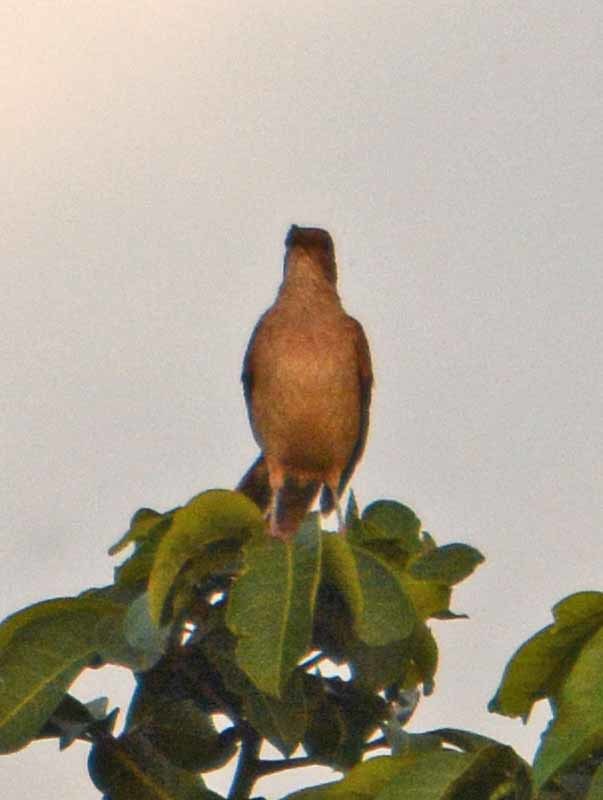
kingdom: Animalia
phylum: Chordata
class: Aves
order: Passeriformes
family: Turdidae
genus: Turdus
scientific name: Turdus grayi
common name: Clay-colored thrush
